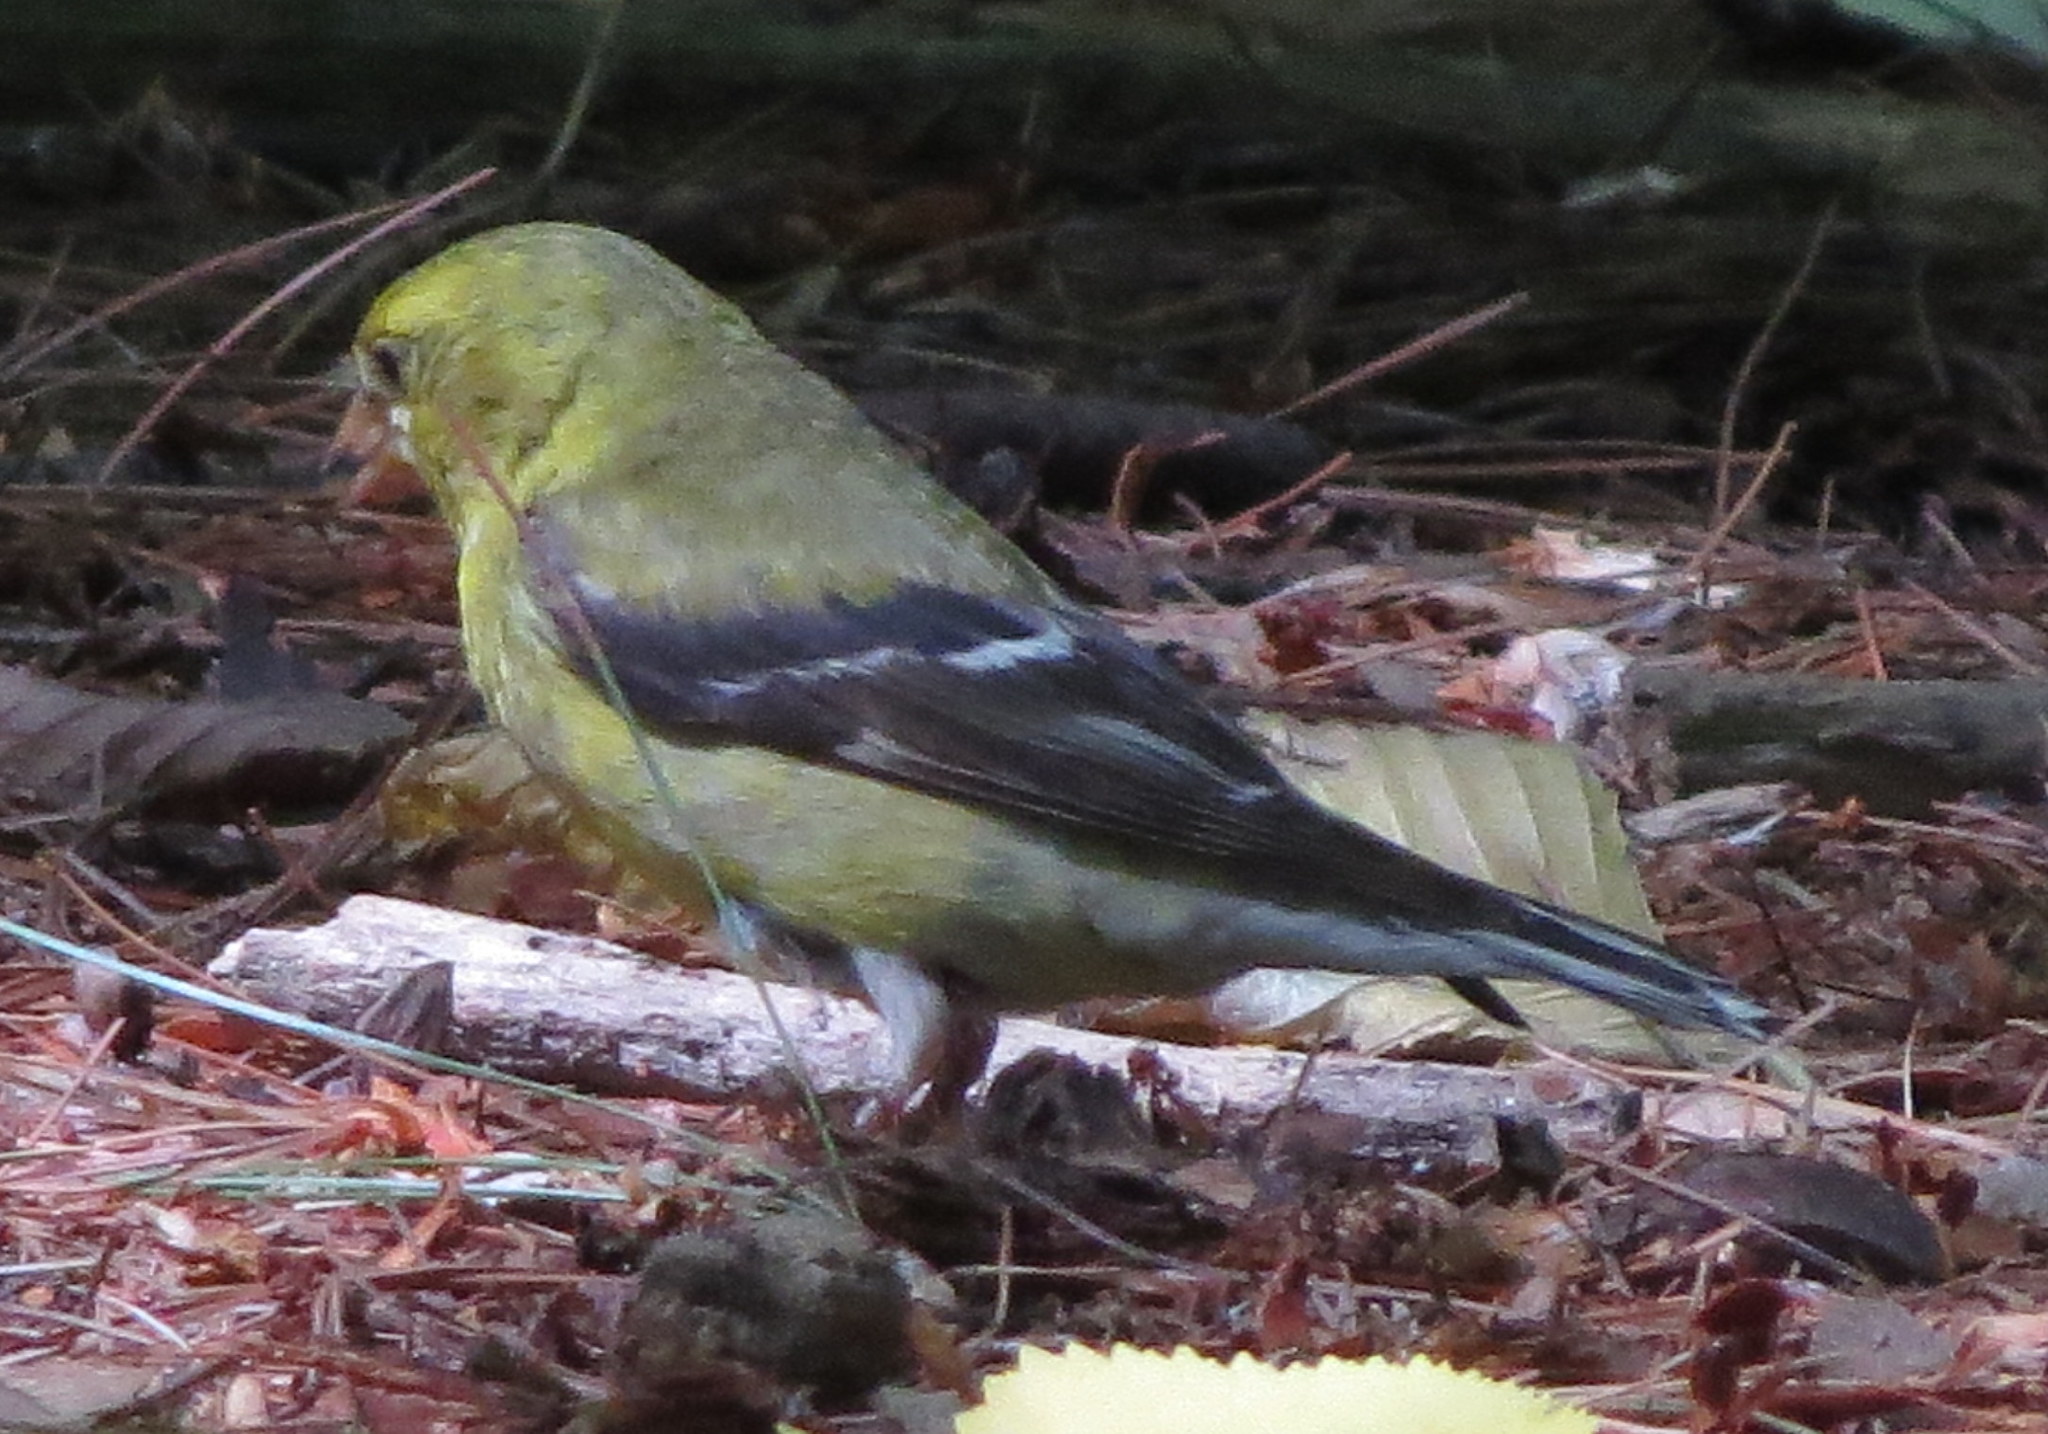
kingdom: Animalia
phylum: Chordata
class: Aves
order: Passeriformes
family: Fringillidae
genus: Spinus
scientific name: Spinus tristis
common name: American goldfinch
